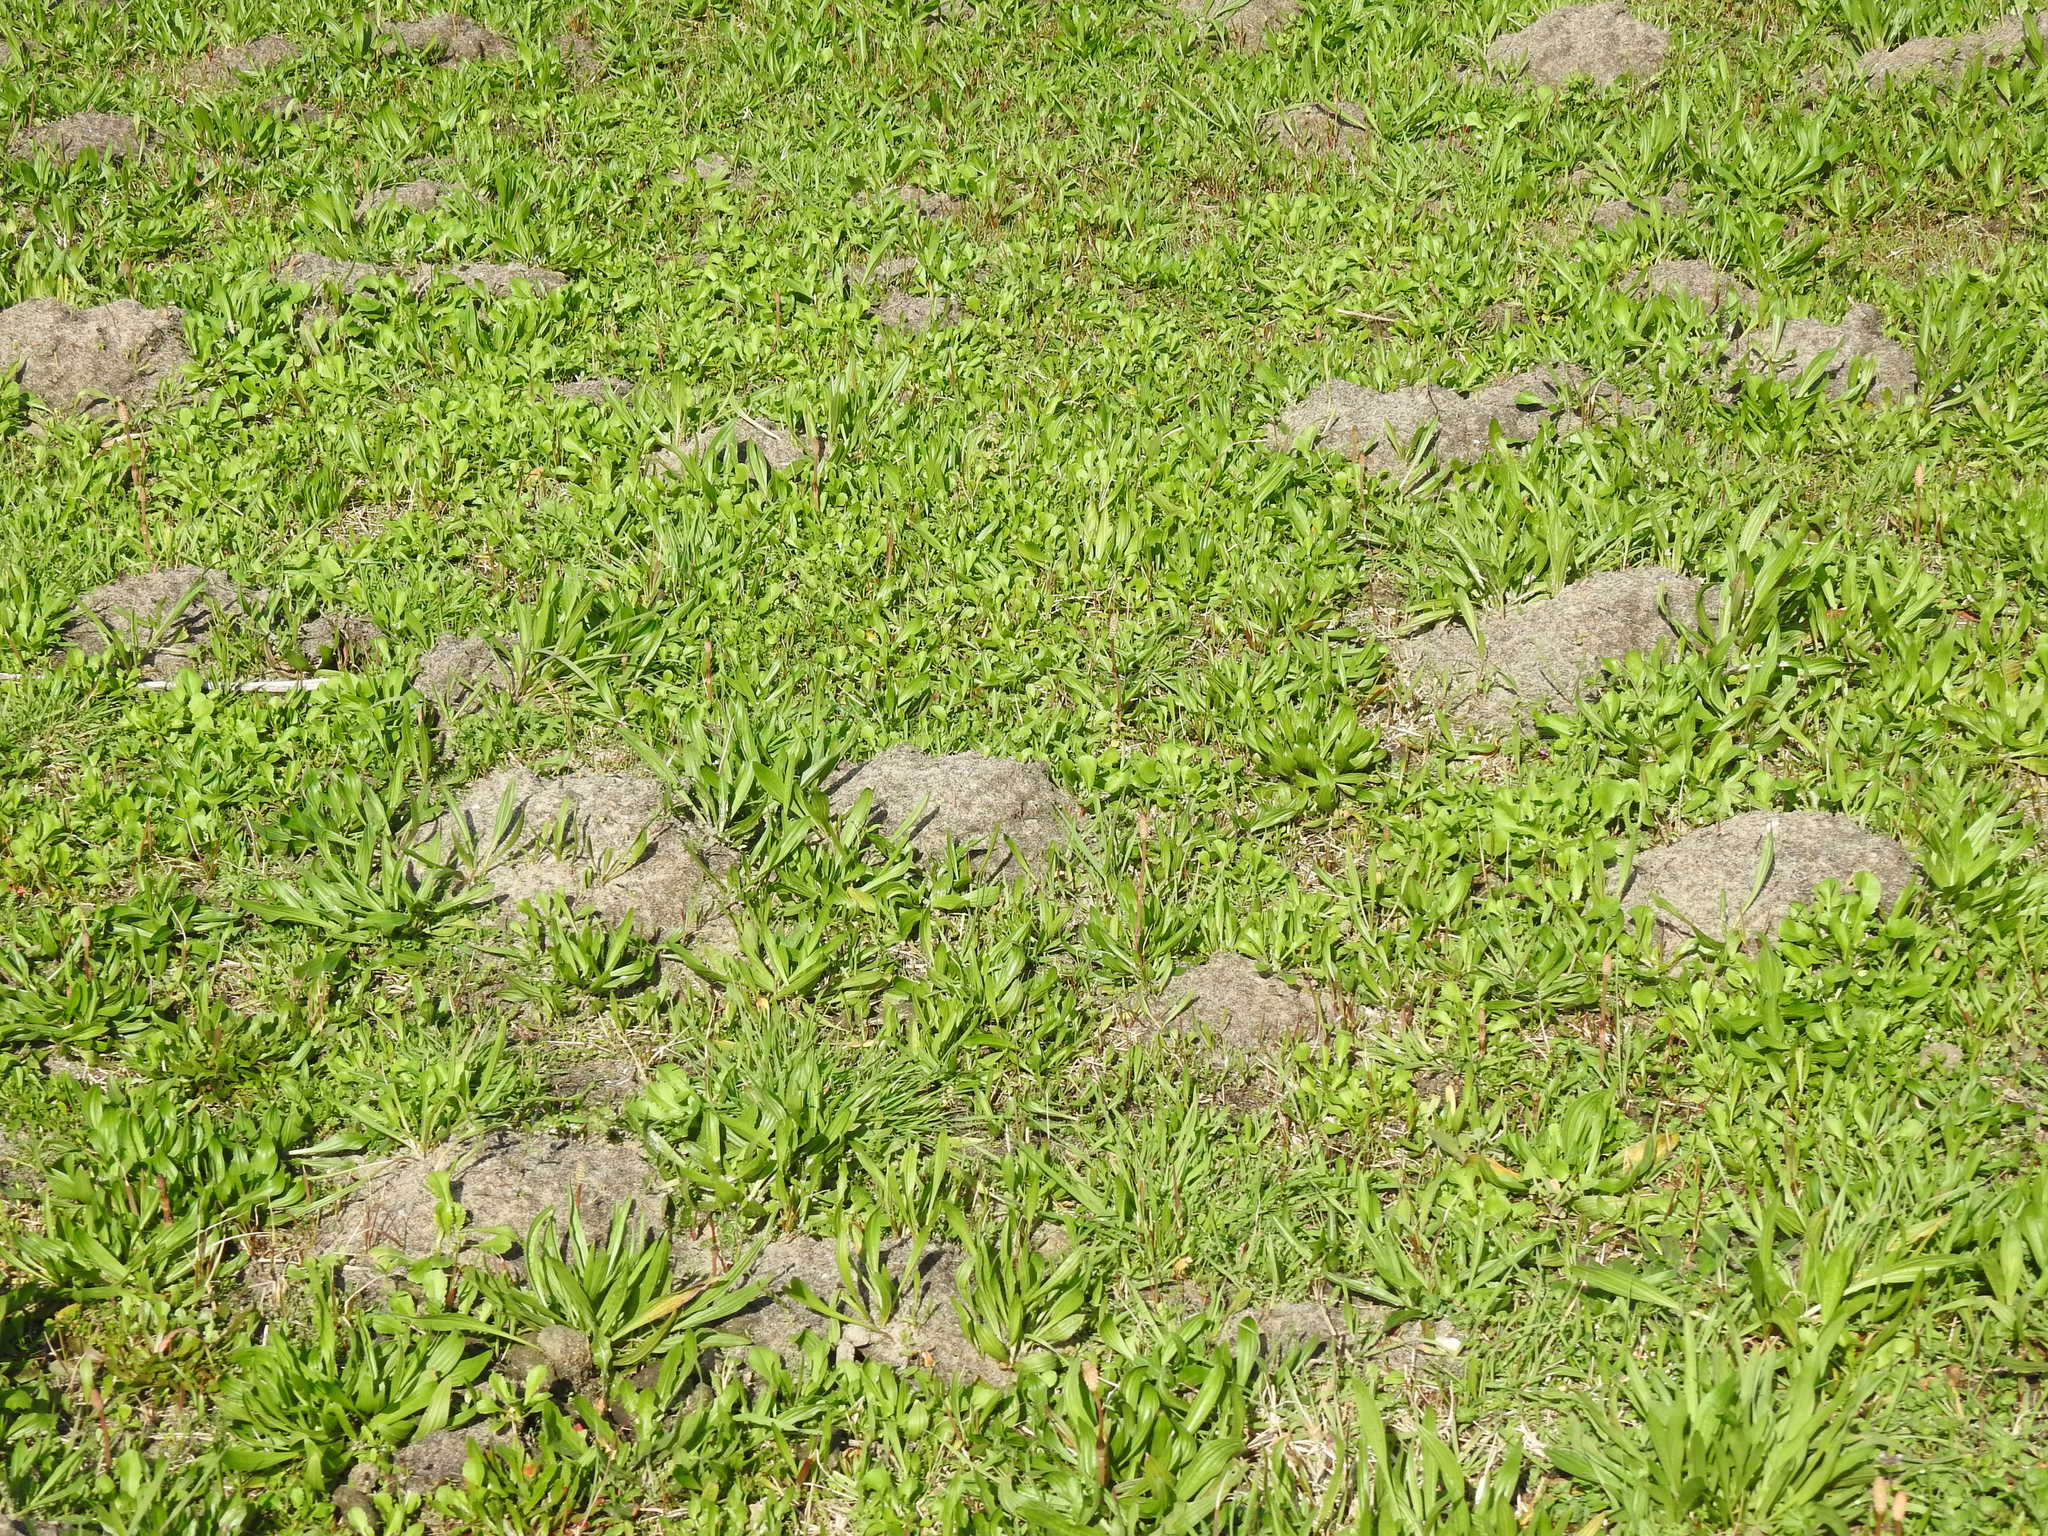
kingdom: Animalia
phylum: Chordata
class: Mammalia
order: Soricomorpha
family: Talpidae
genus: Talpa
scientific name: Talpa occidentalis
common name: Iberian mole
